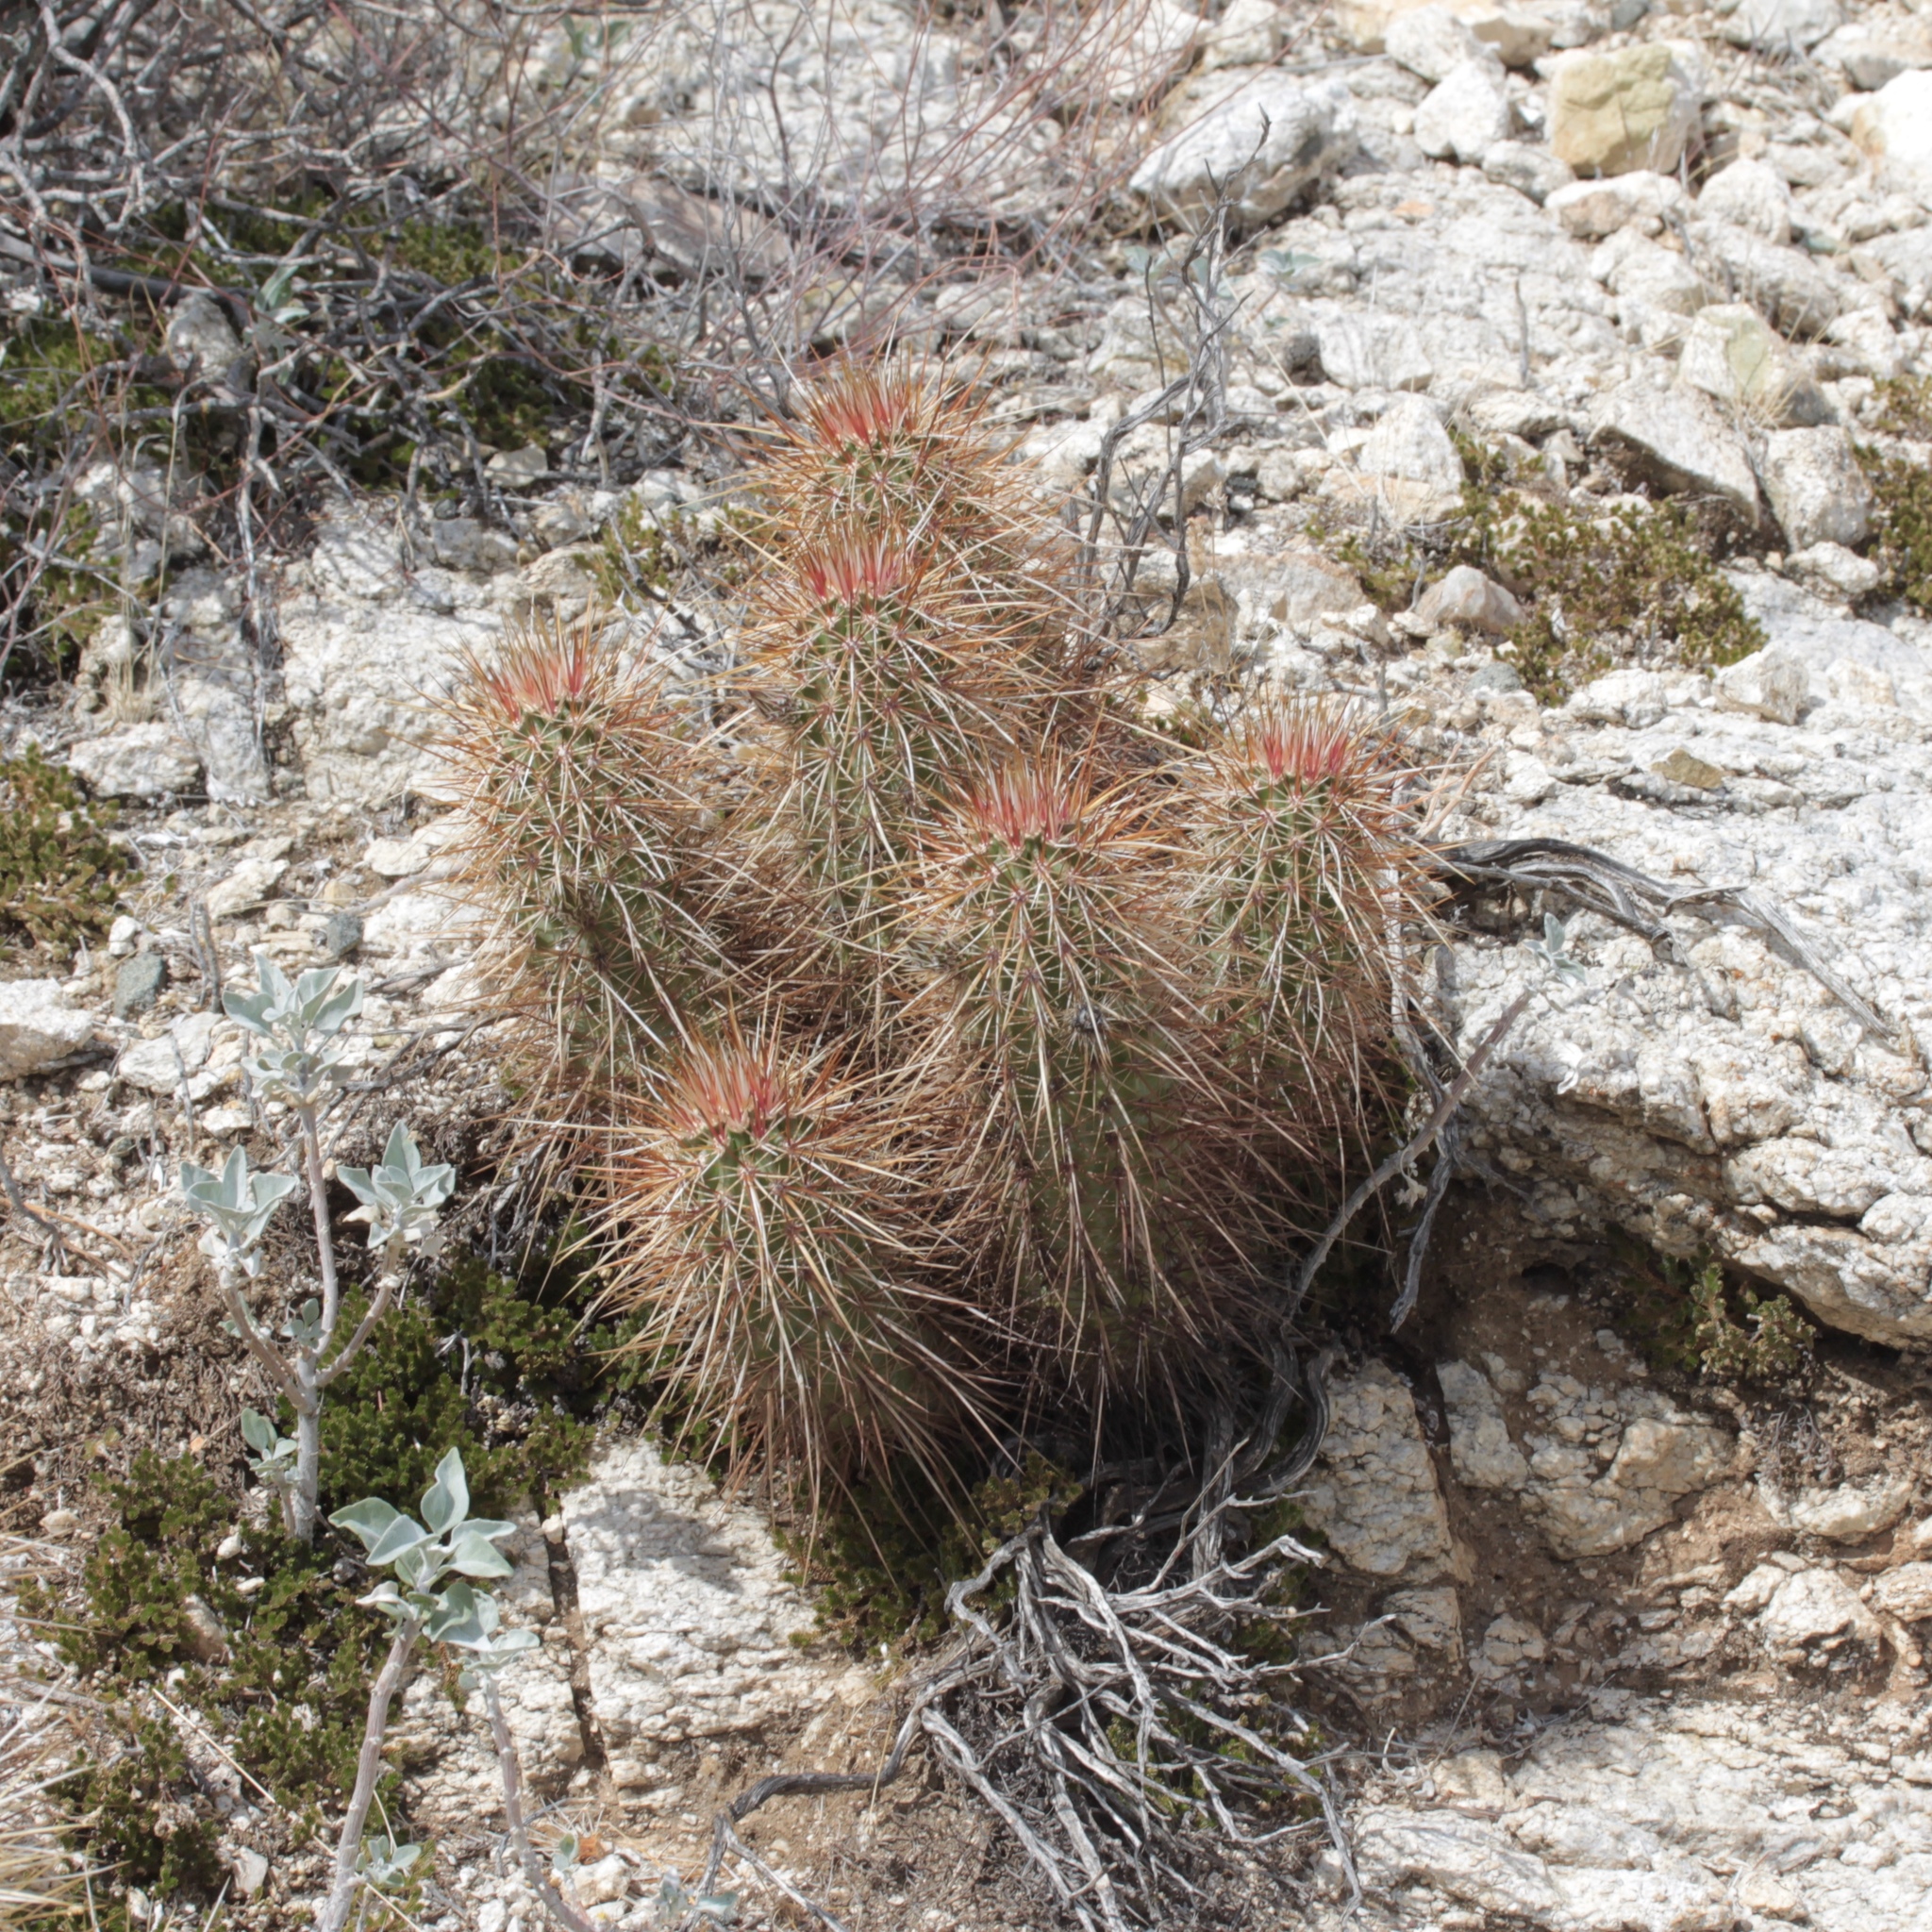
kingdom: Plantae
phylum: Tracheophyta
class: Magnoliopsida
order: Caryophyllales
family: Cactaceae
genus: Echinocereus
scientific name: Echinocereus engelmannii
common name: Engelmann's hedgehog cactus
